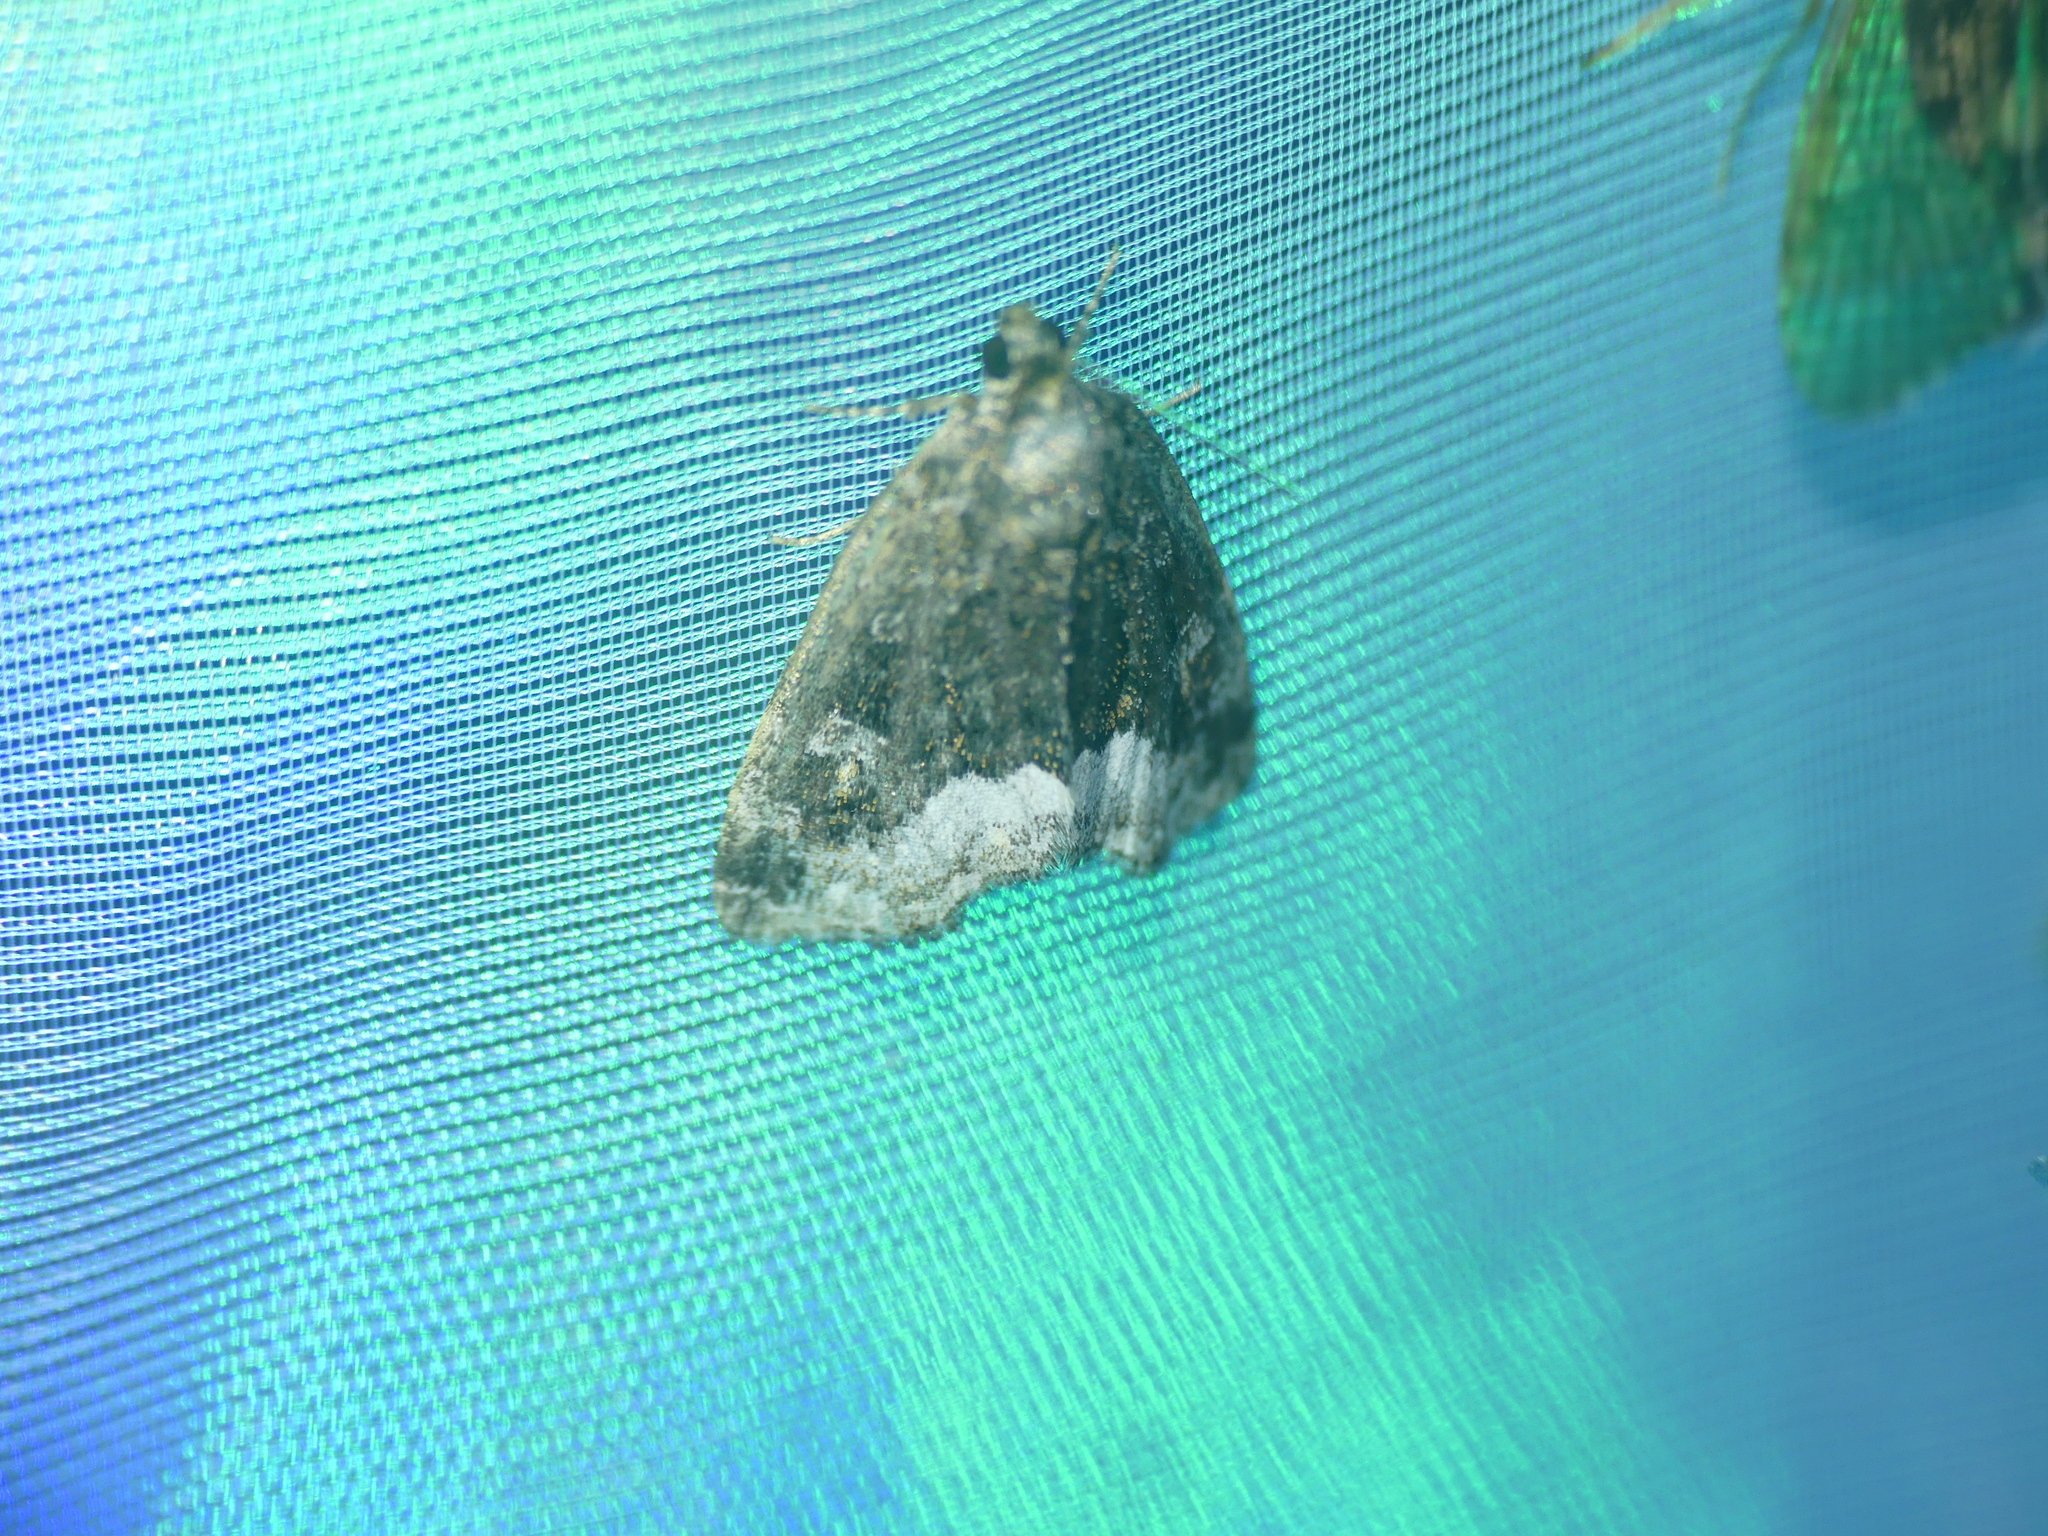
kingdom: Animalia
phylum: Arthropoda
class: Insecta
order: Lepidoptera
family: Noctuidae
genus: Deltote
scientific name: Deltote pygarga
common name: Marbled white spot
